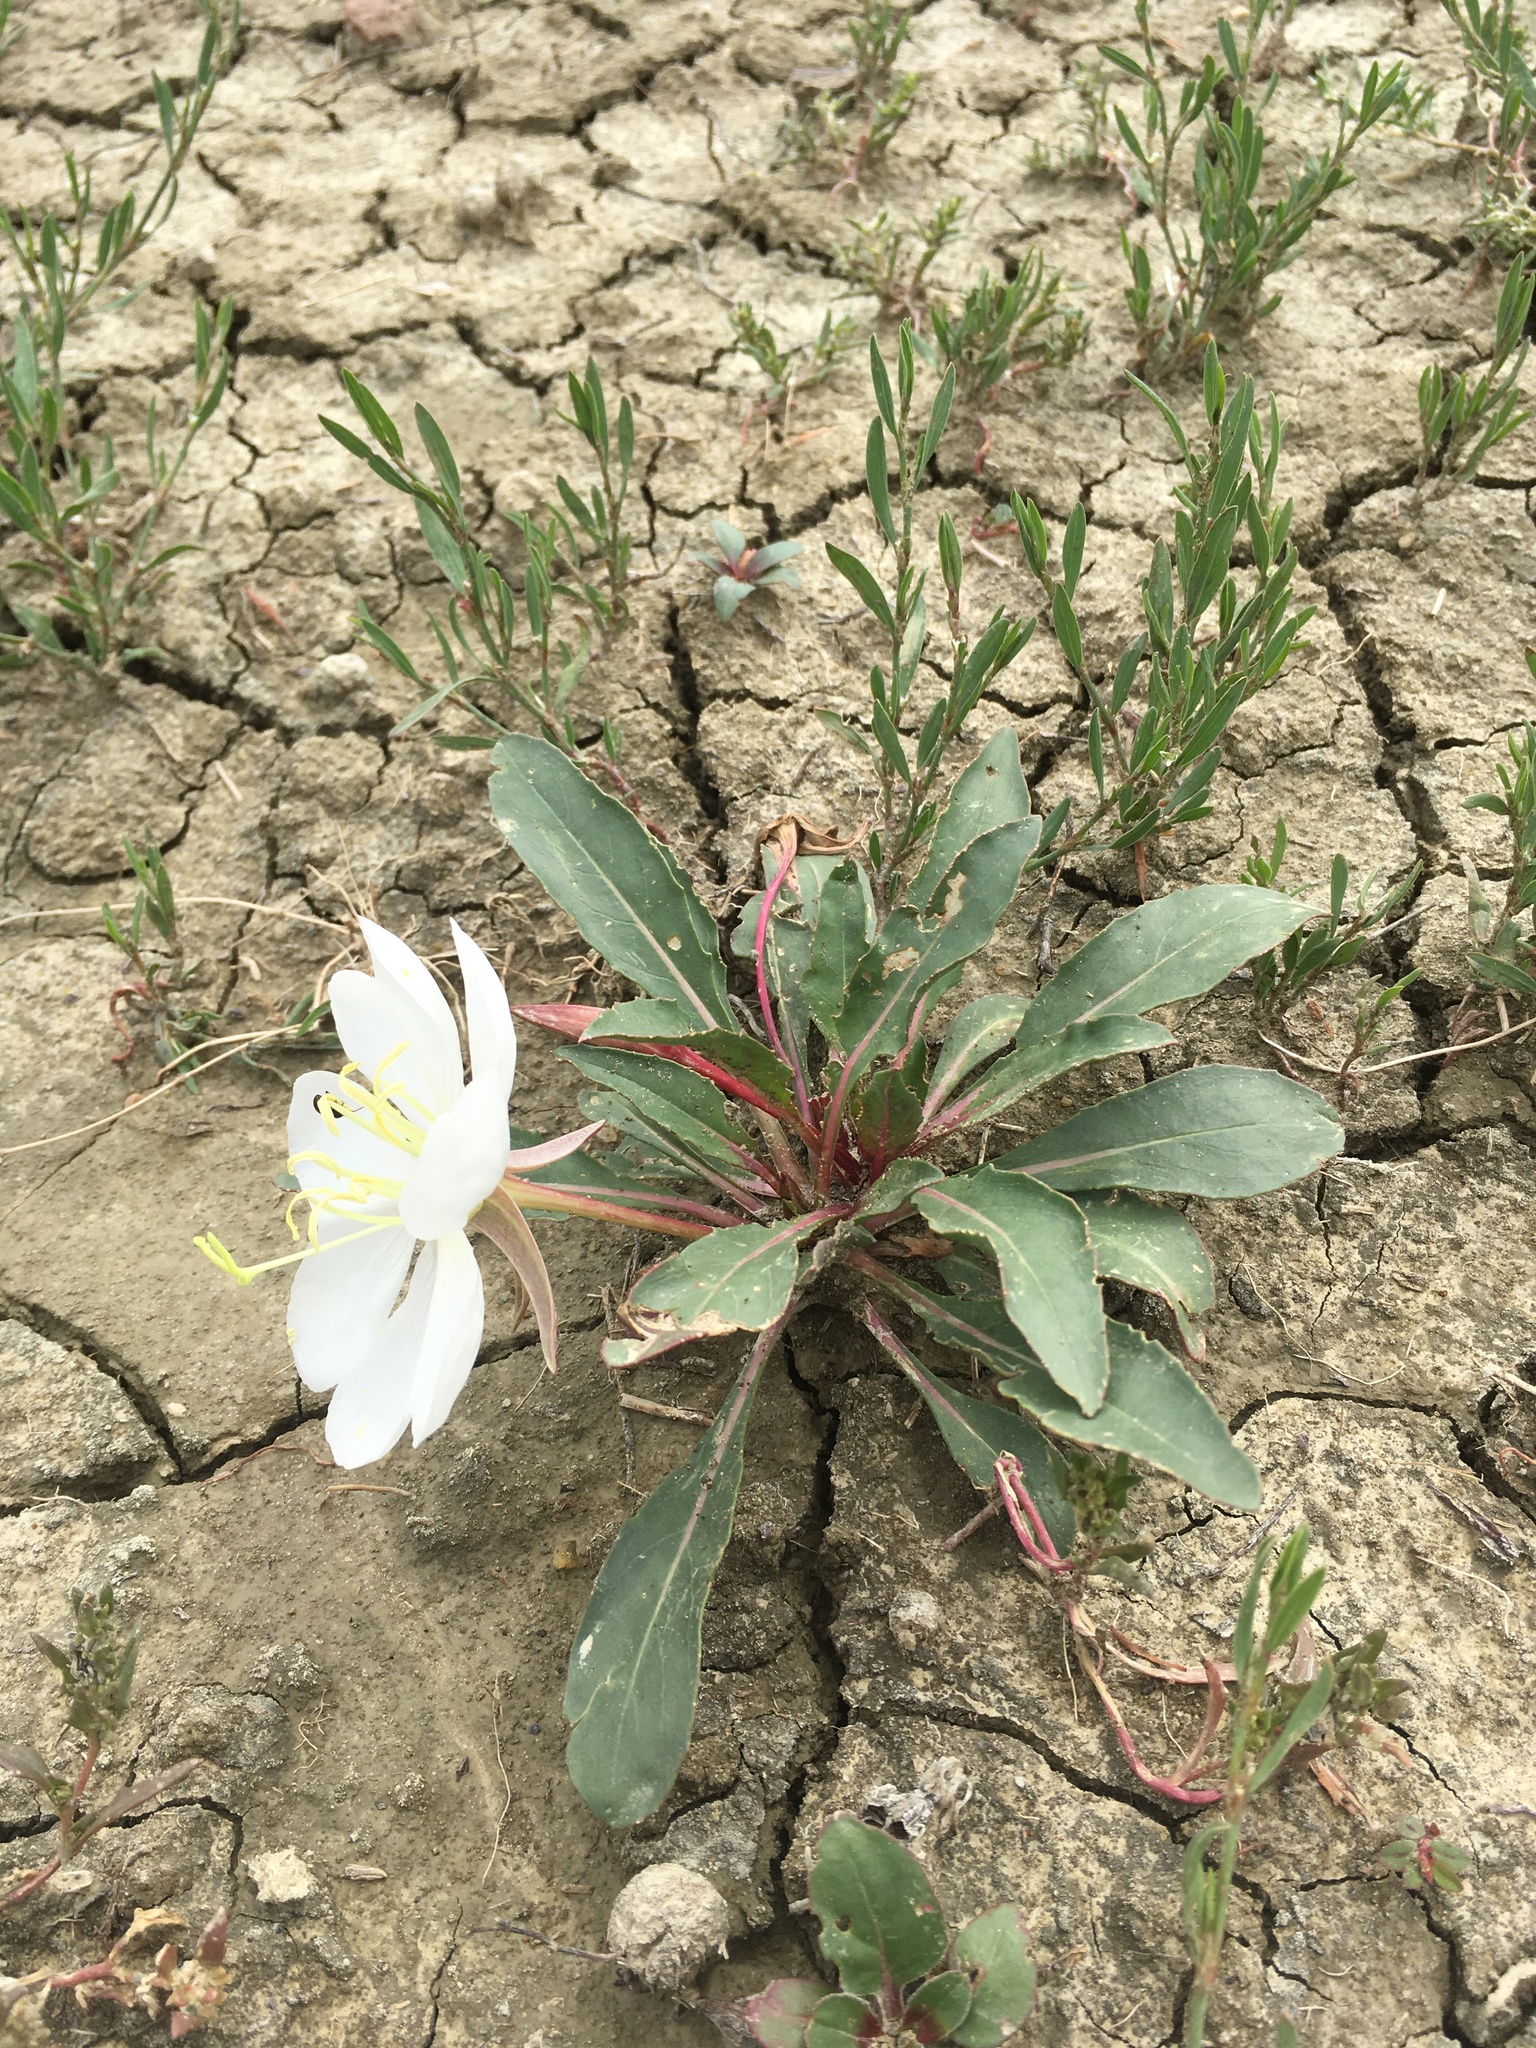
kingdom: Plantae
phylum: Tracheophyta
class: Magnoliopsida
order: Myrtales
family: Onagraceae
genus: Oenothera
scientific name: Oenothera cespitosa
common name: Tufted evening-primrose
